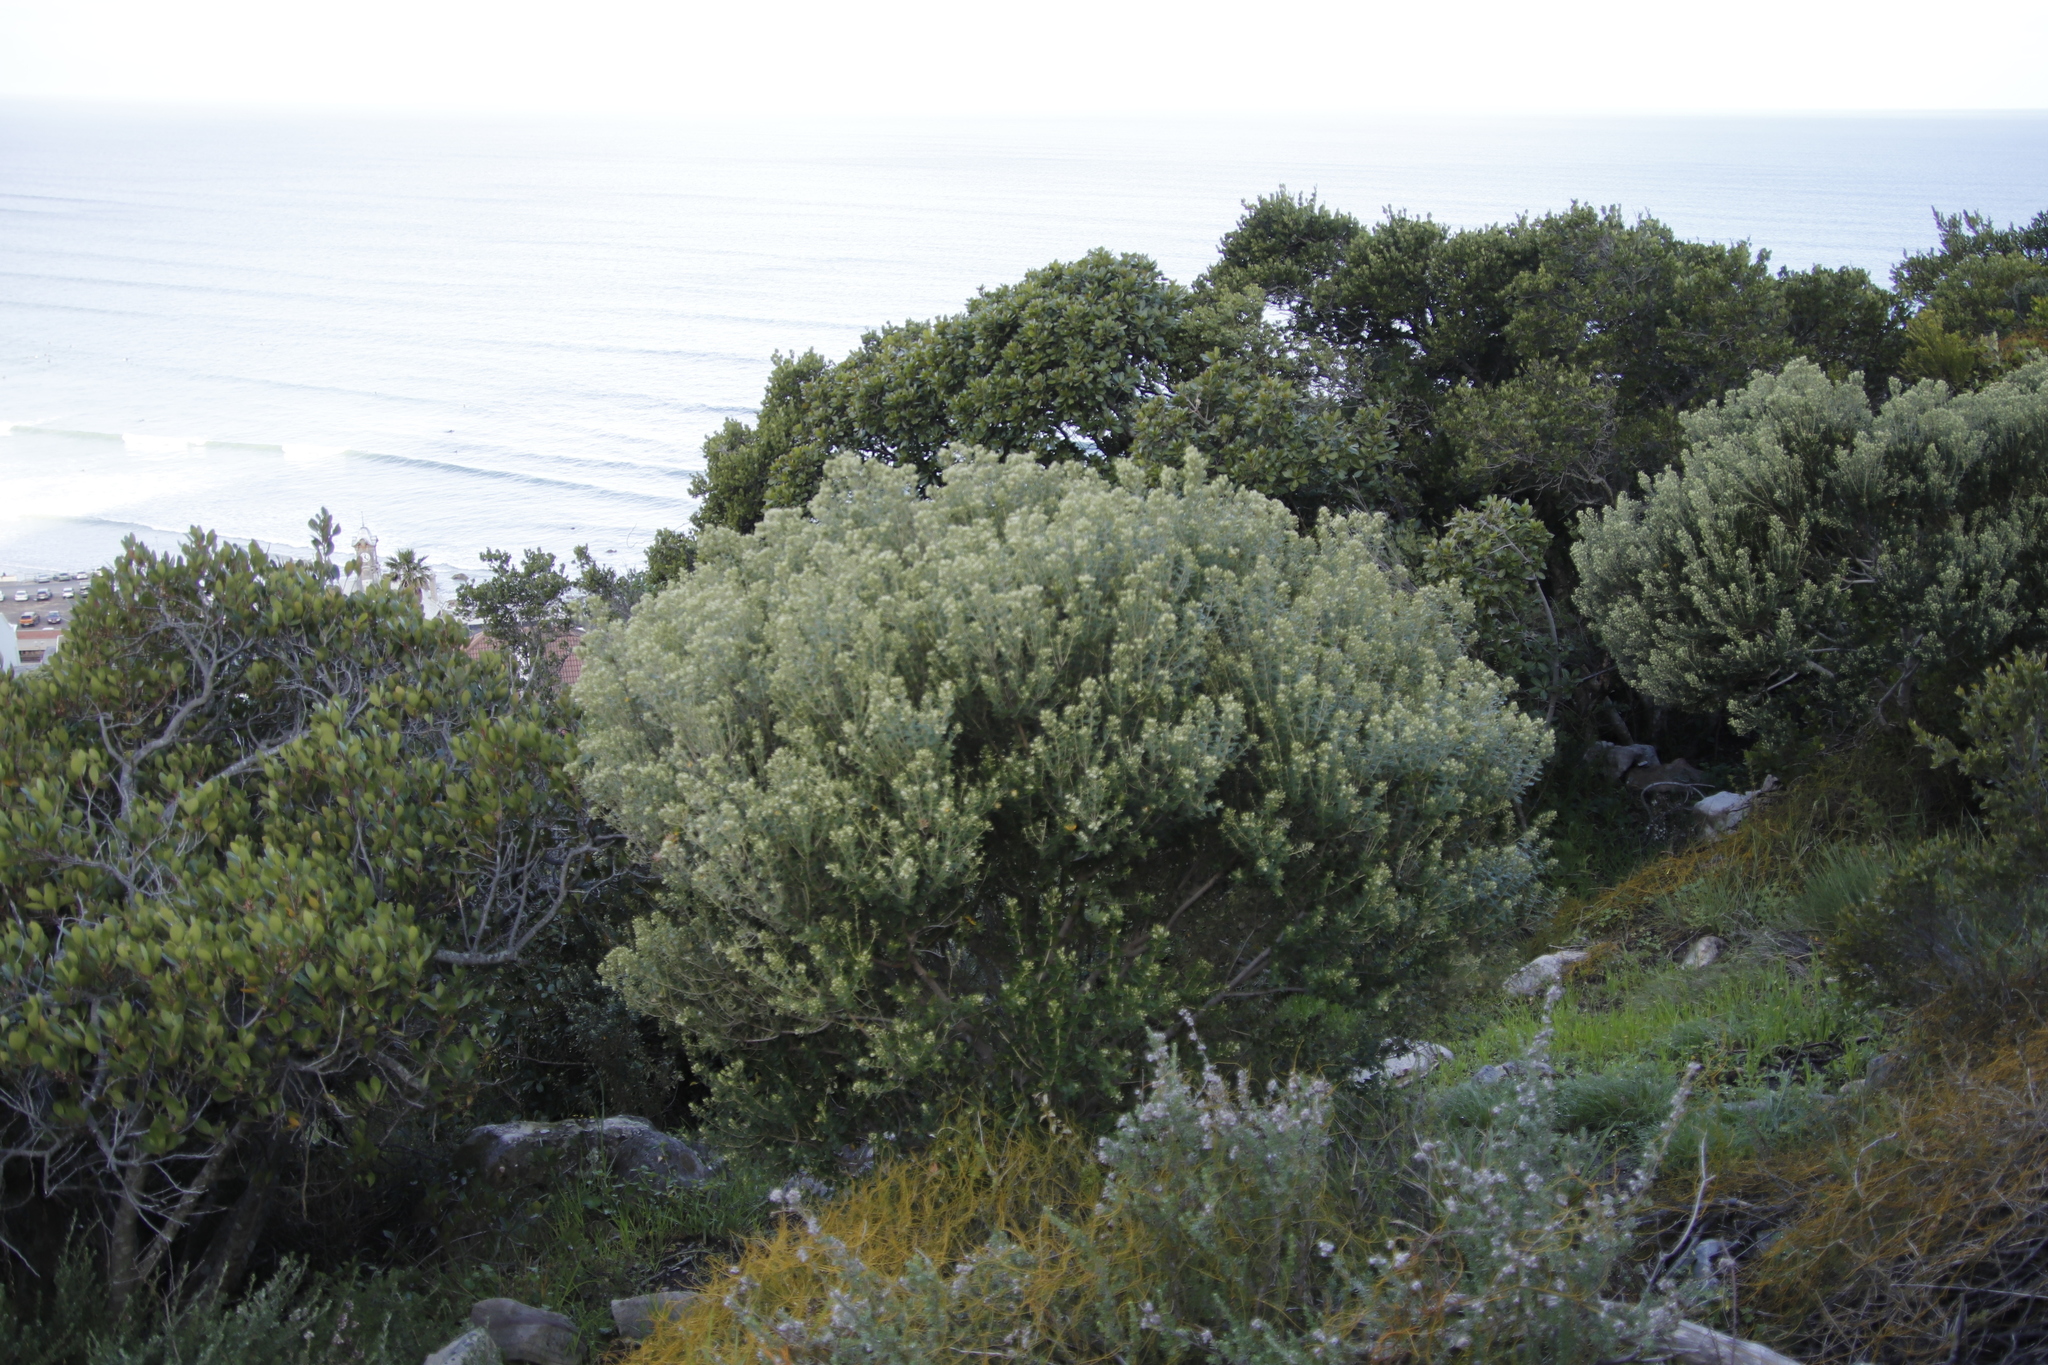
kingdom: Plantae
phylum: Tracheophyta
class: Magnoliopsida
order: Rosales
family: Rhamnaceae
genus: Phylica
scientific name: Phylica buxifolia
